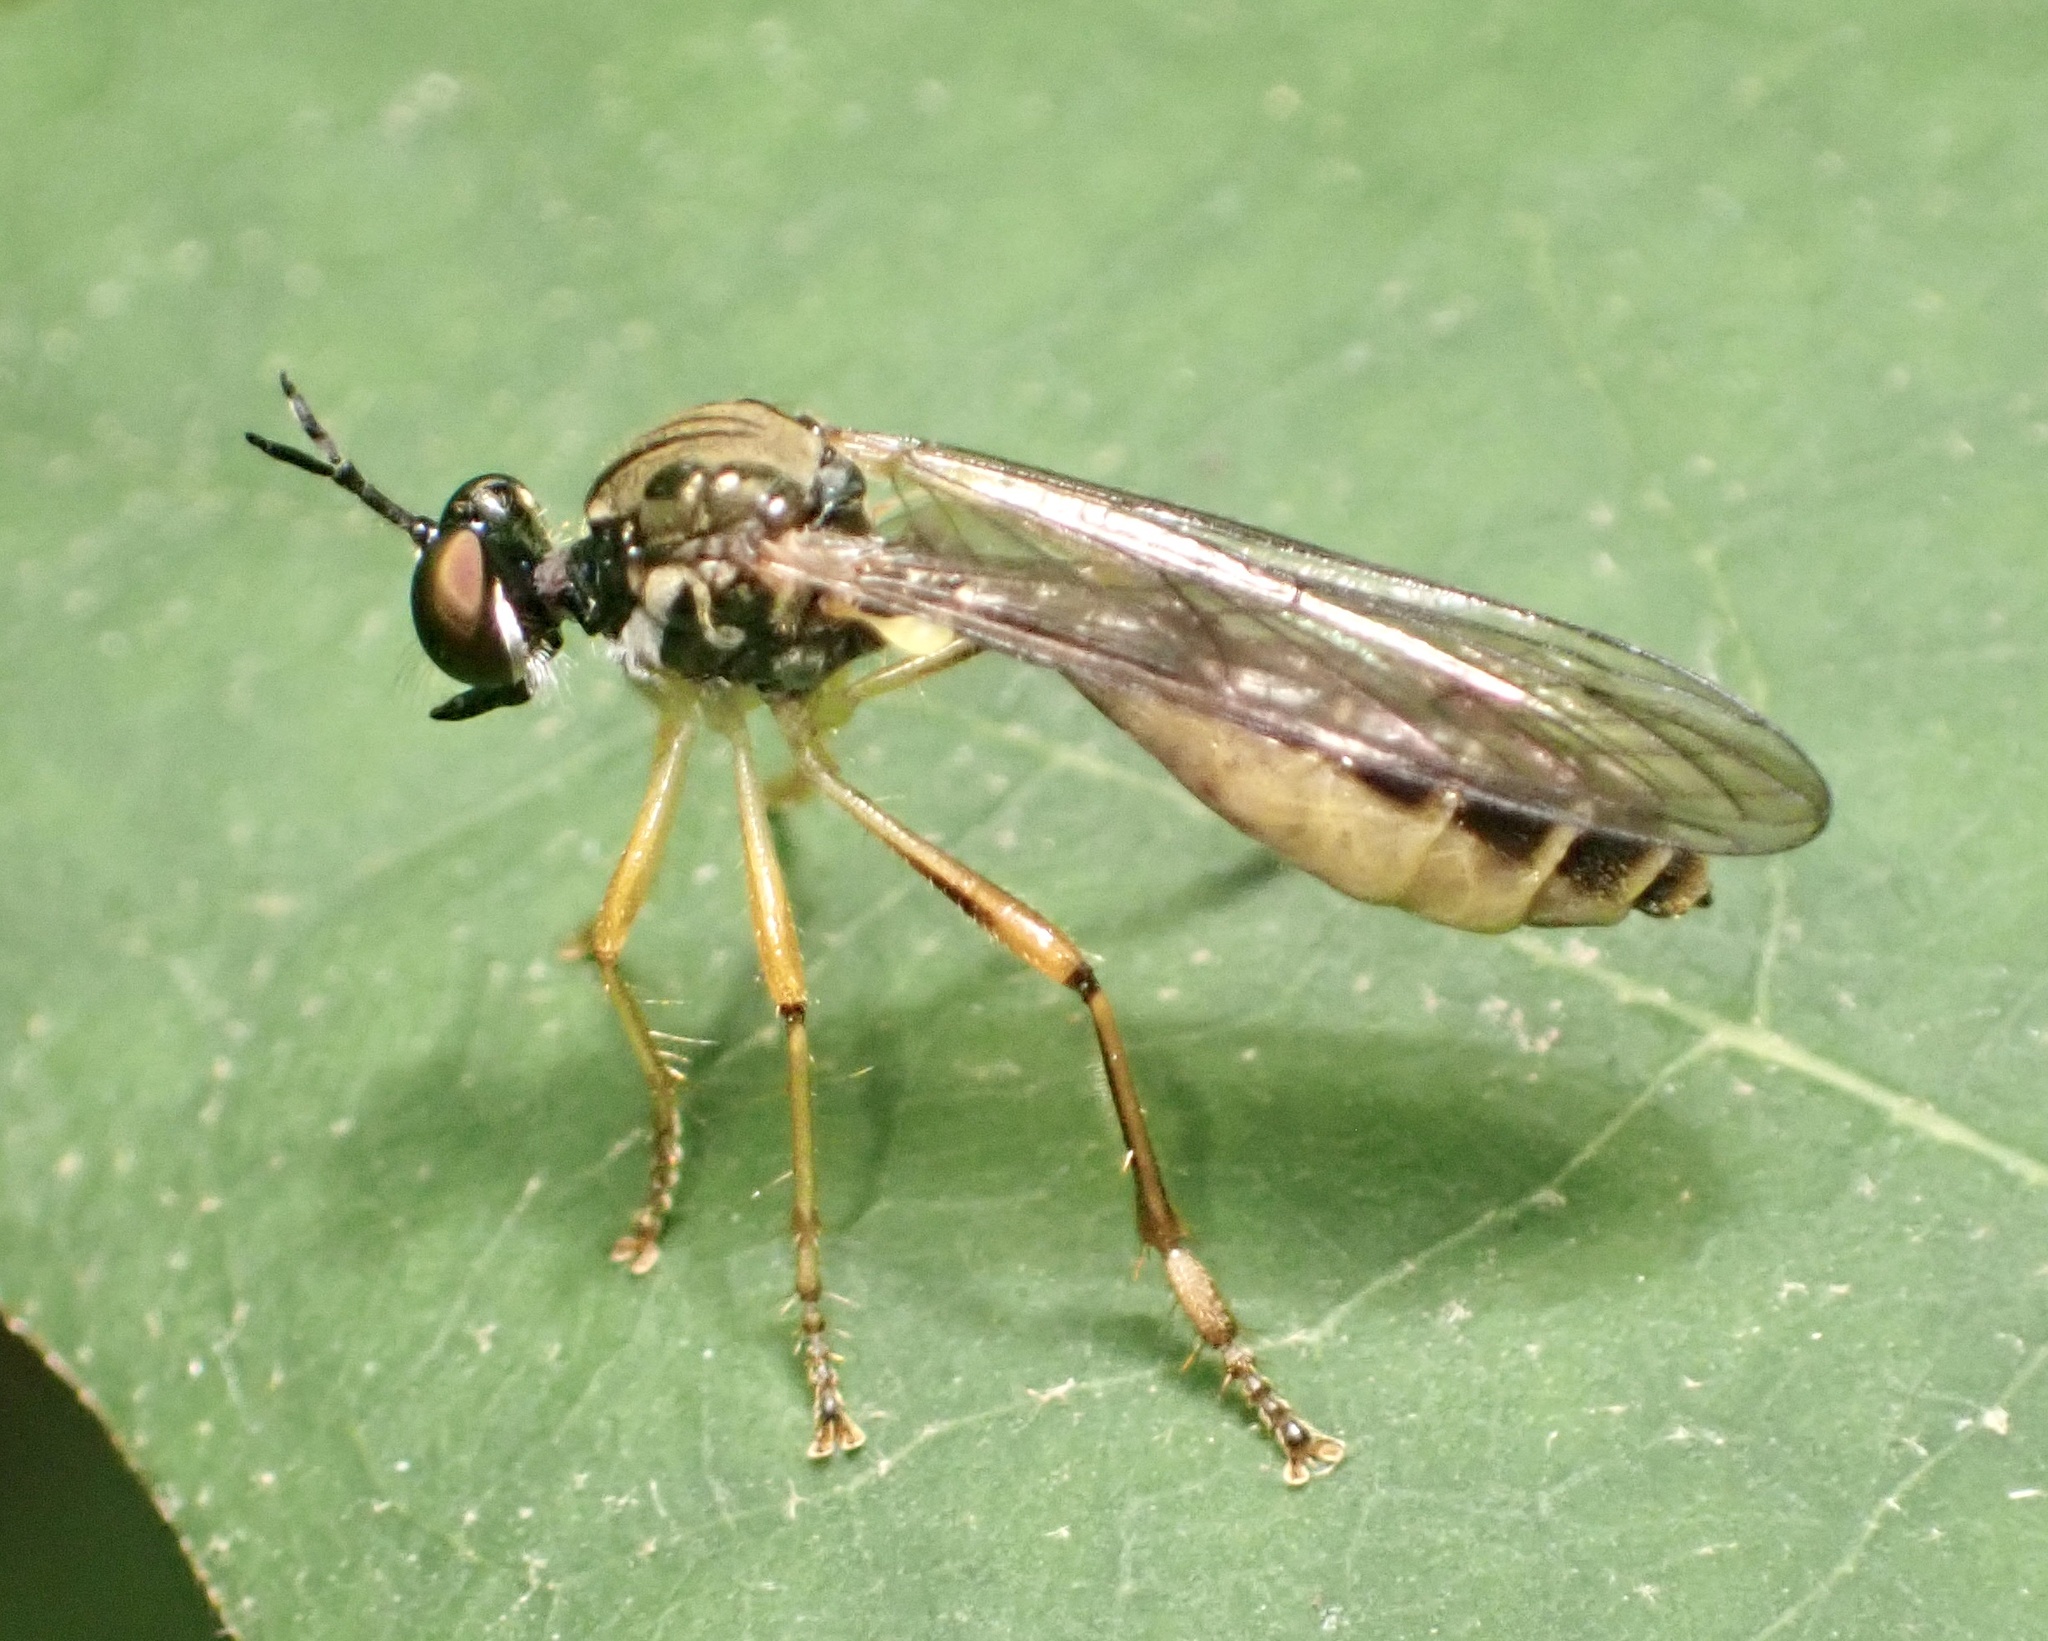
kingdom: Animalia
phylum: Arthropoda
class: Insecta
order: Diptera
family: Asilidae
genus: Dioctria
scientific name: Dioctria linearis
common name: Small yellow-legged robberfly
